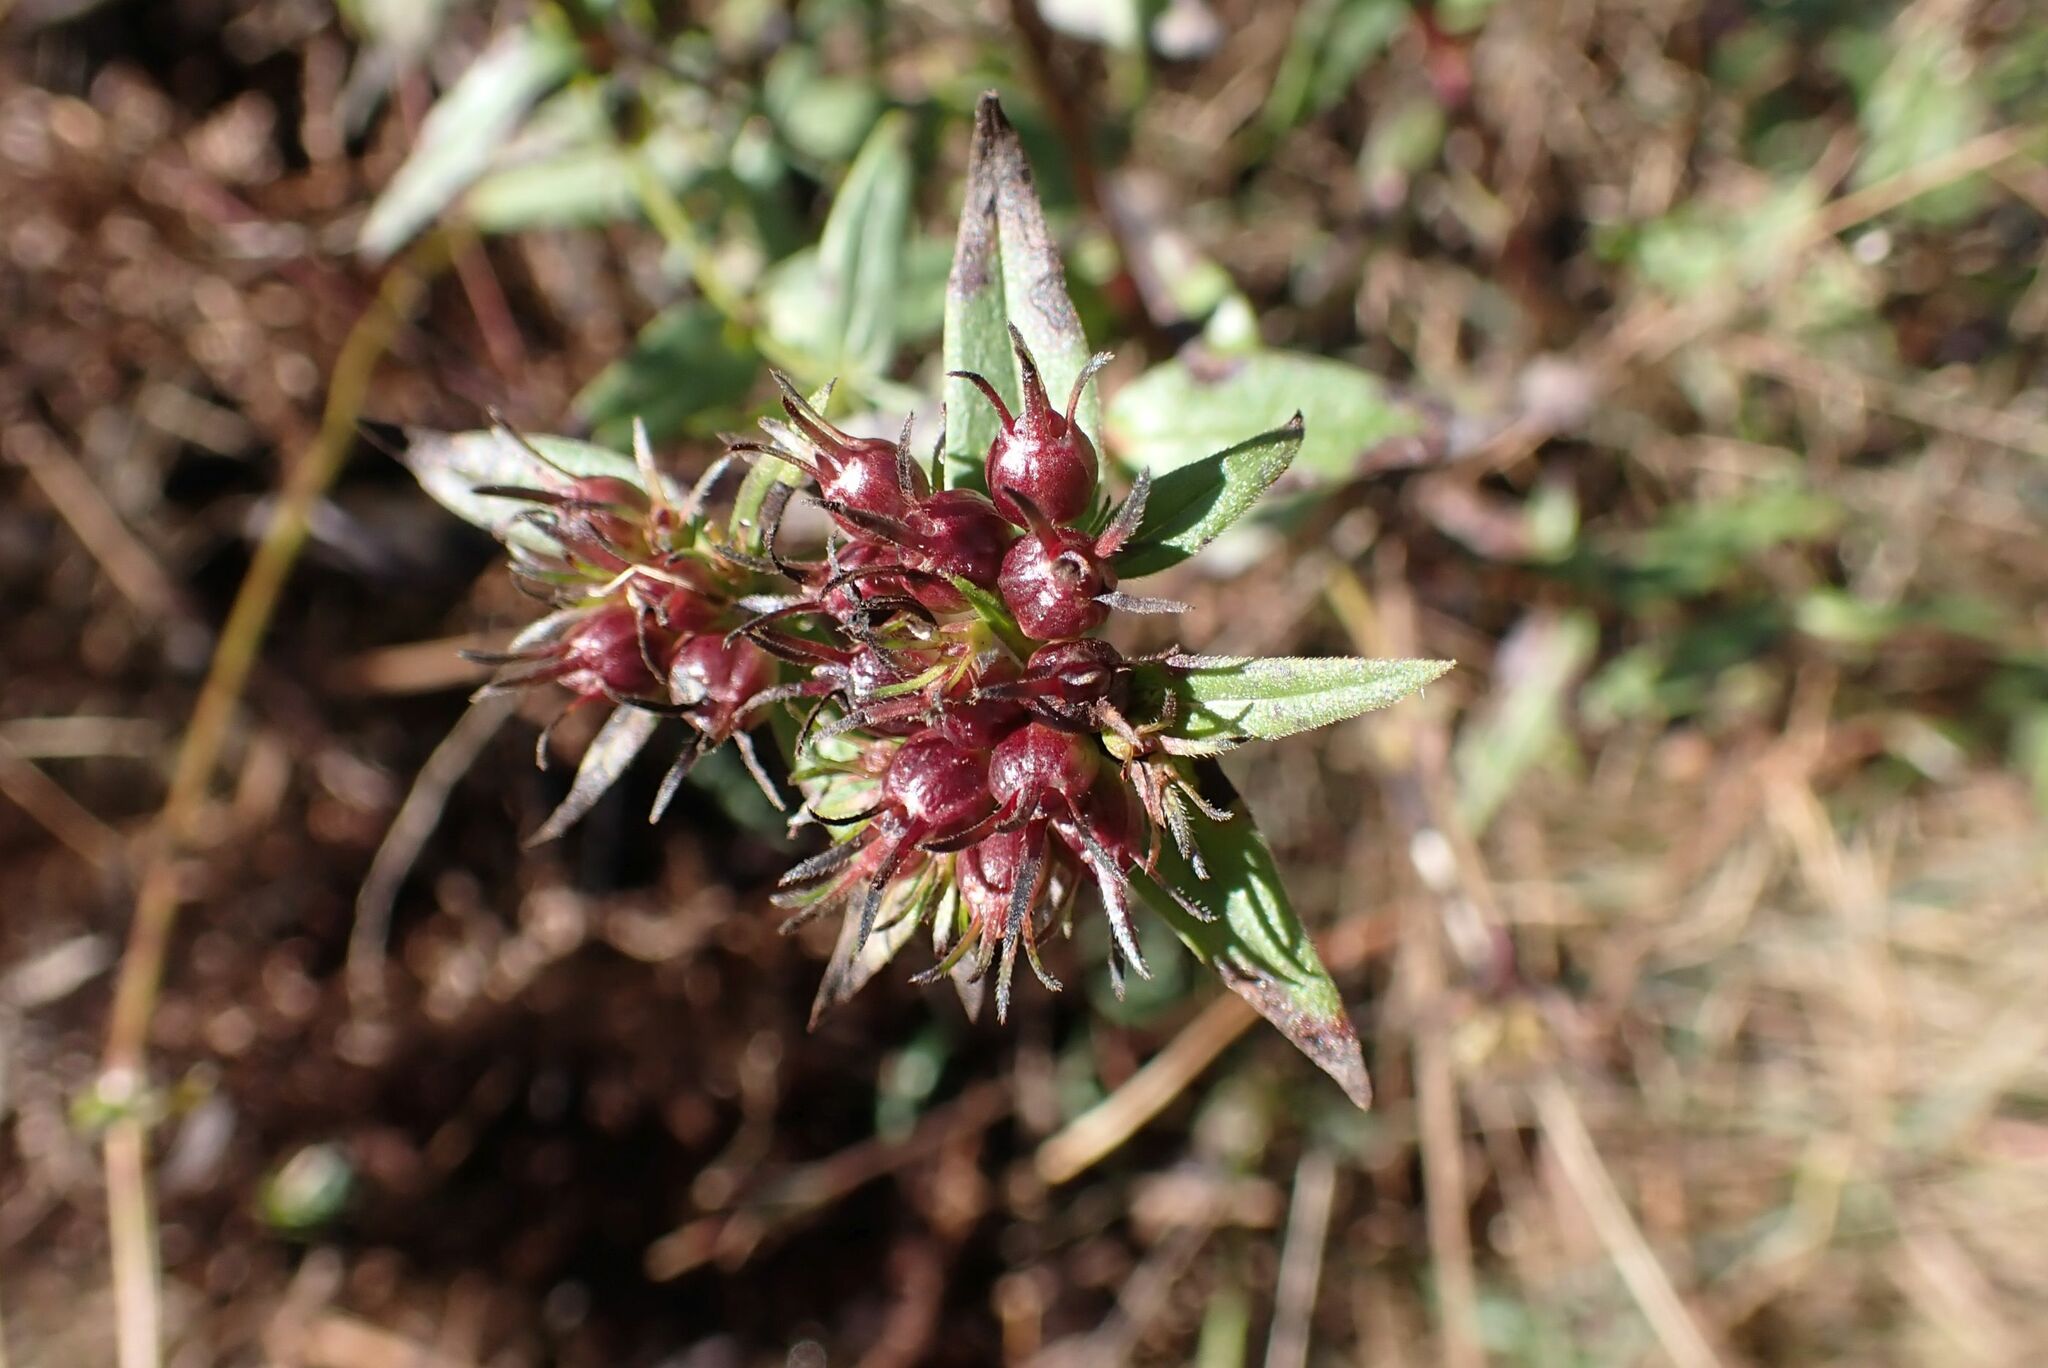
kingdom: Plantae
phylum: Tracheophyta
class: Magnoliopsida
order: Gentianales
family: Rubiaceae
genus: Conostomium
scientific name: Conostomium natalense
